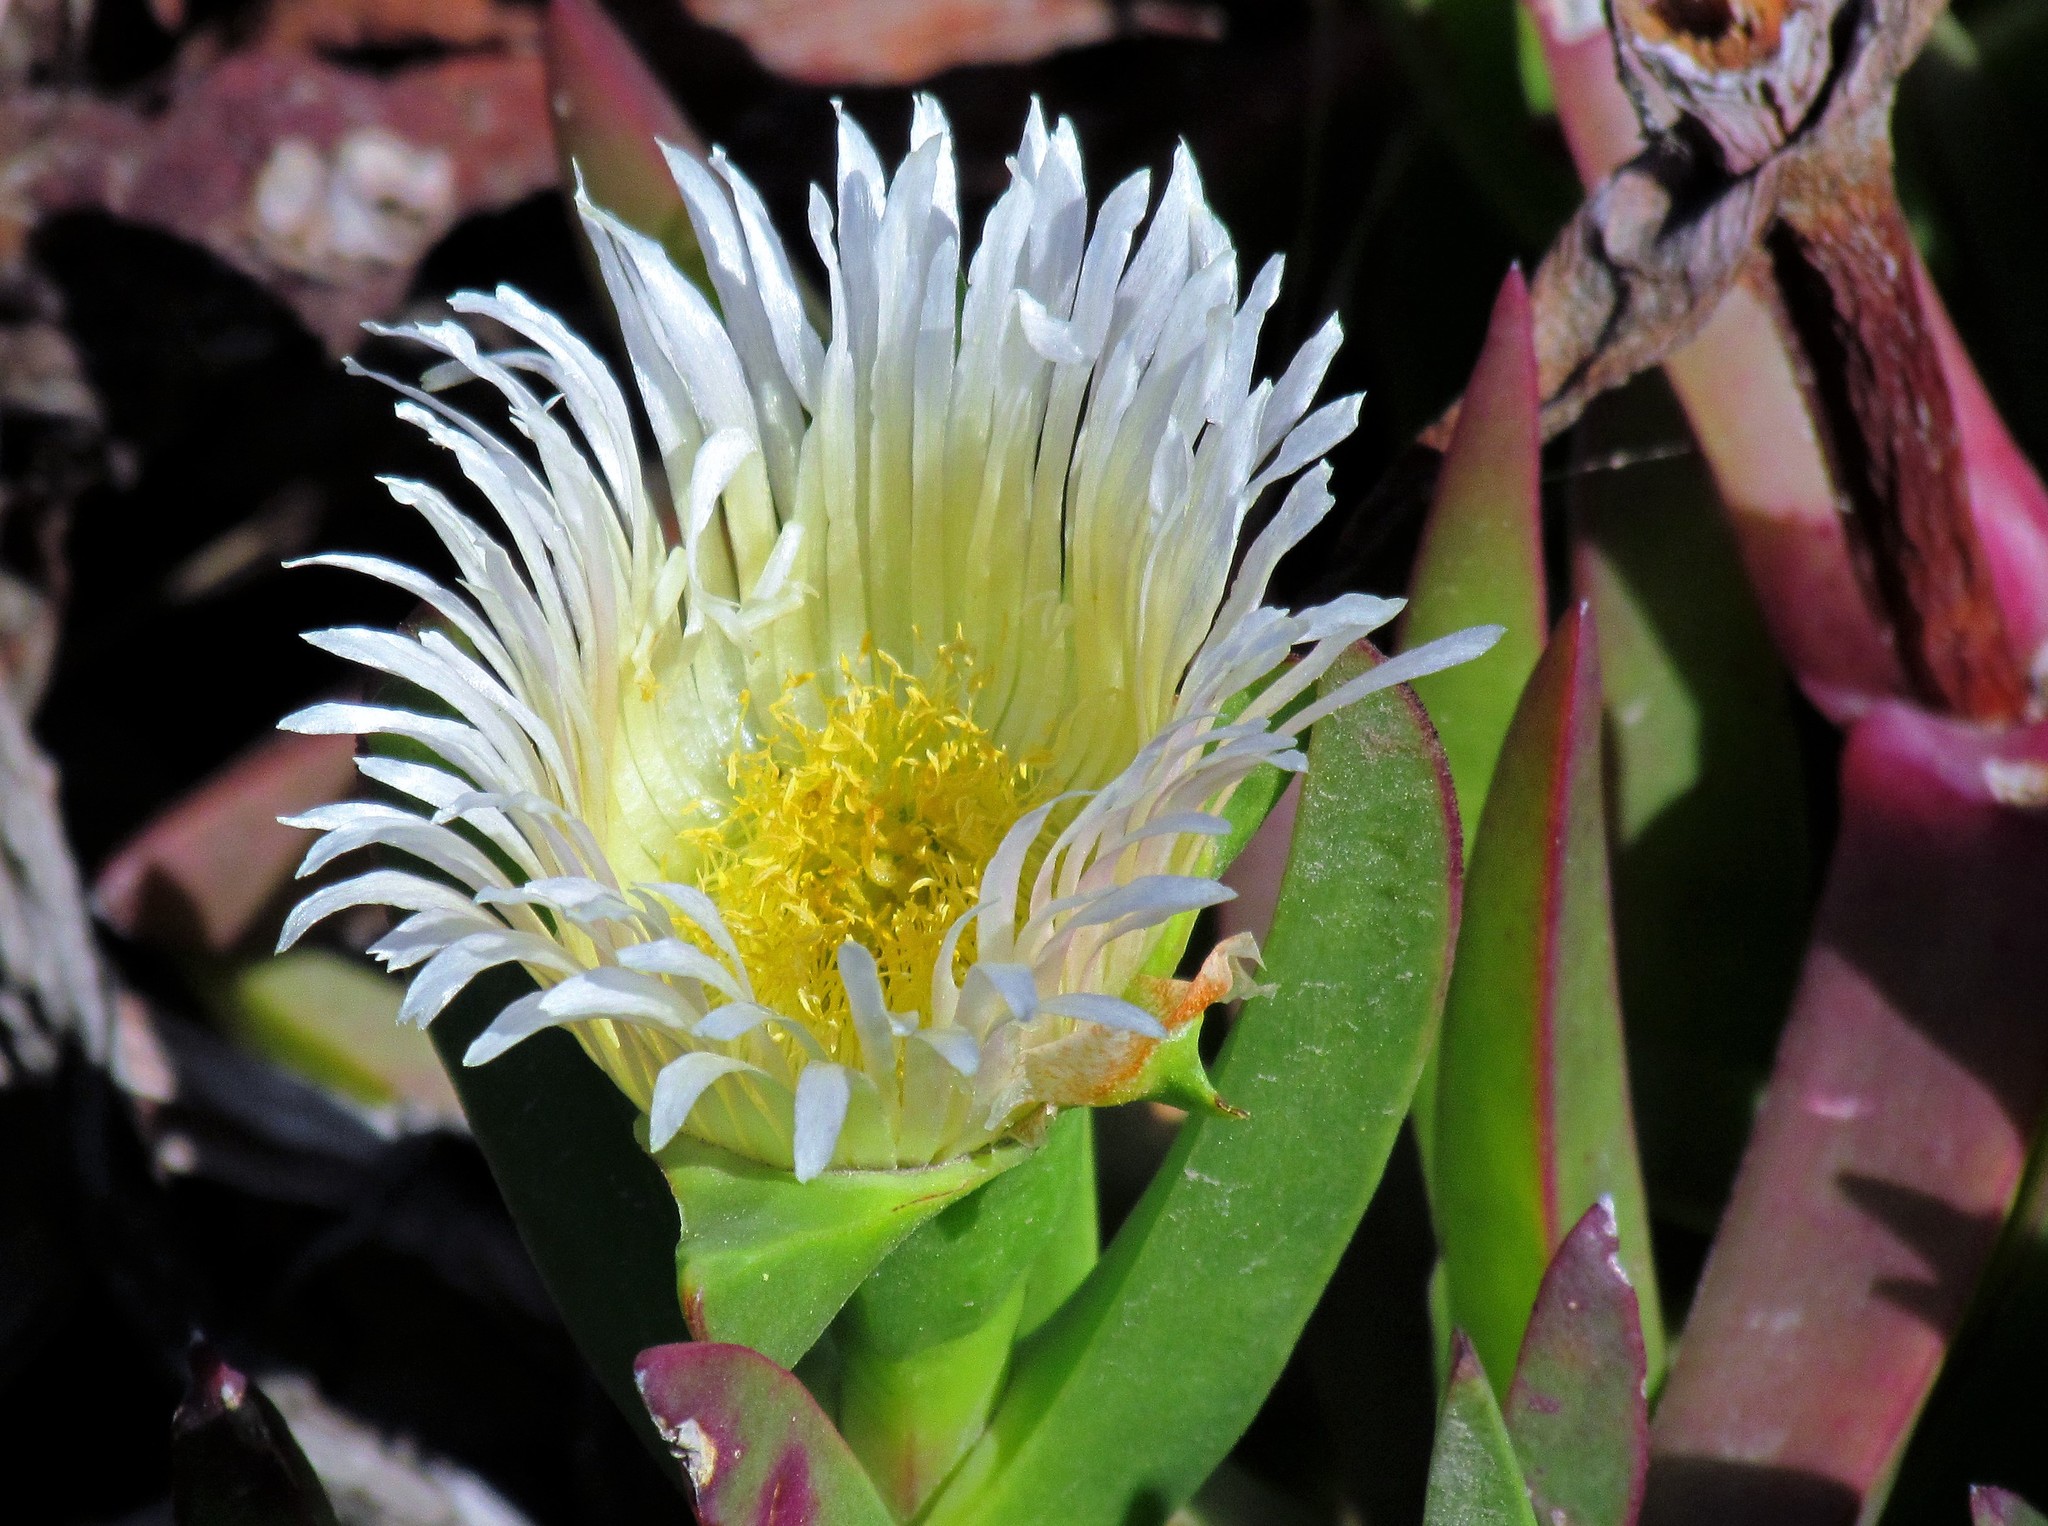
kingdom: Plantae
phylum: Tracheophyta
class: Magnoliopsida
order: Caryophyllales
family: Aizoaceae
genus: Carpobrotus
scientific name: Carpobrotus edulis
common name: Hottentot-fig
